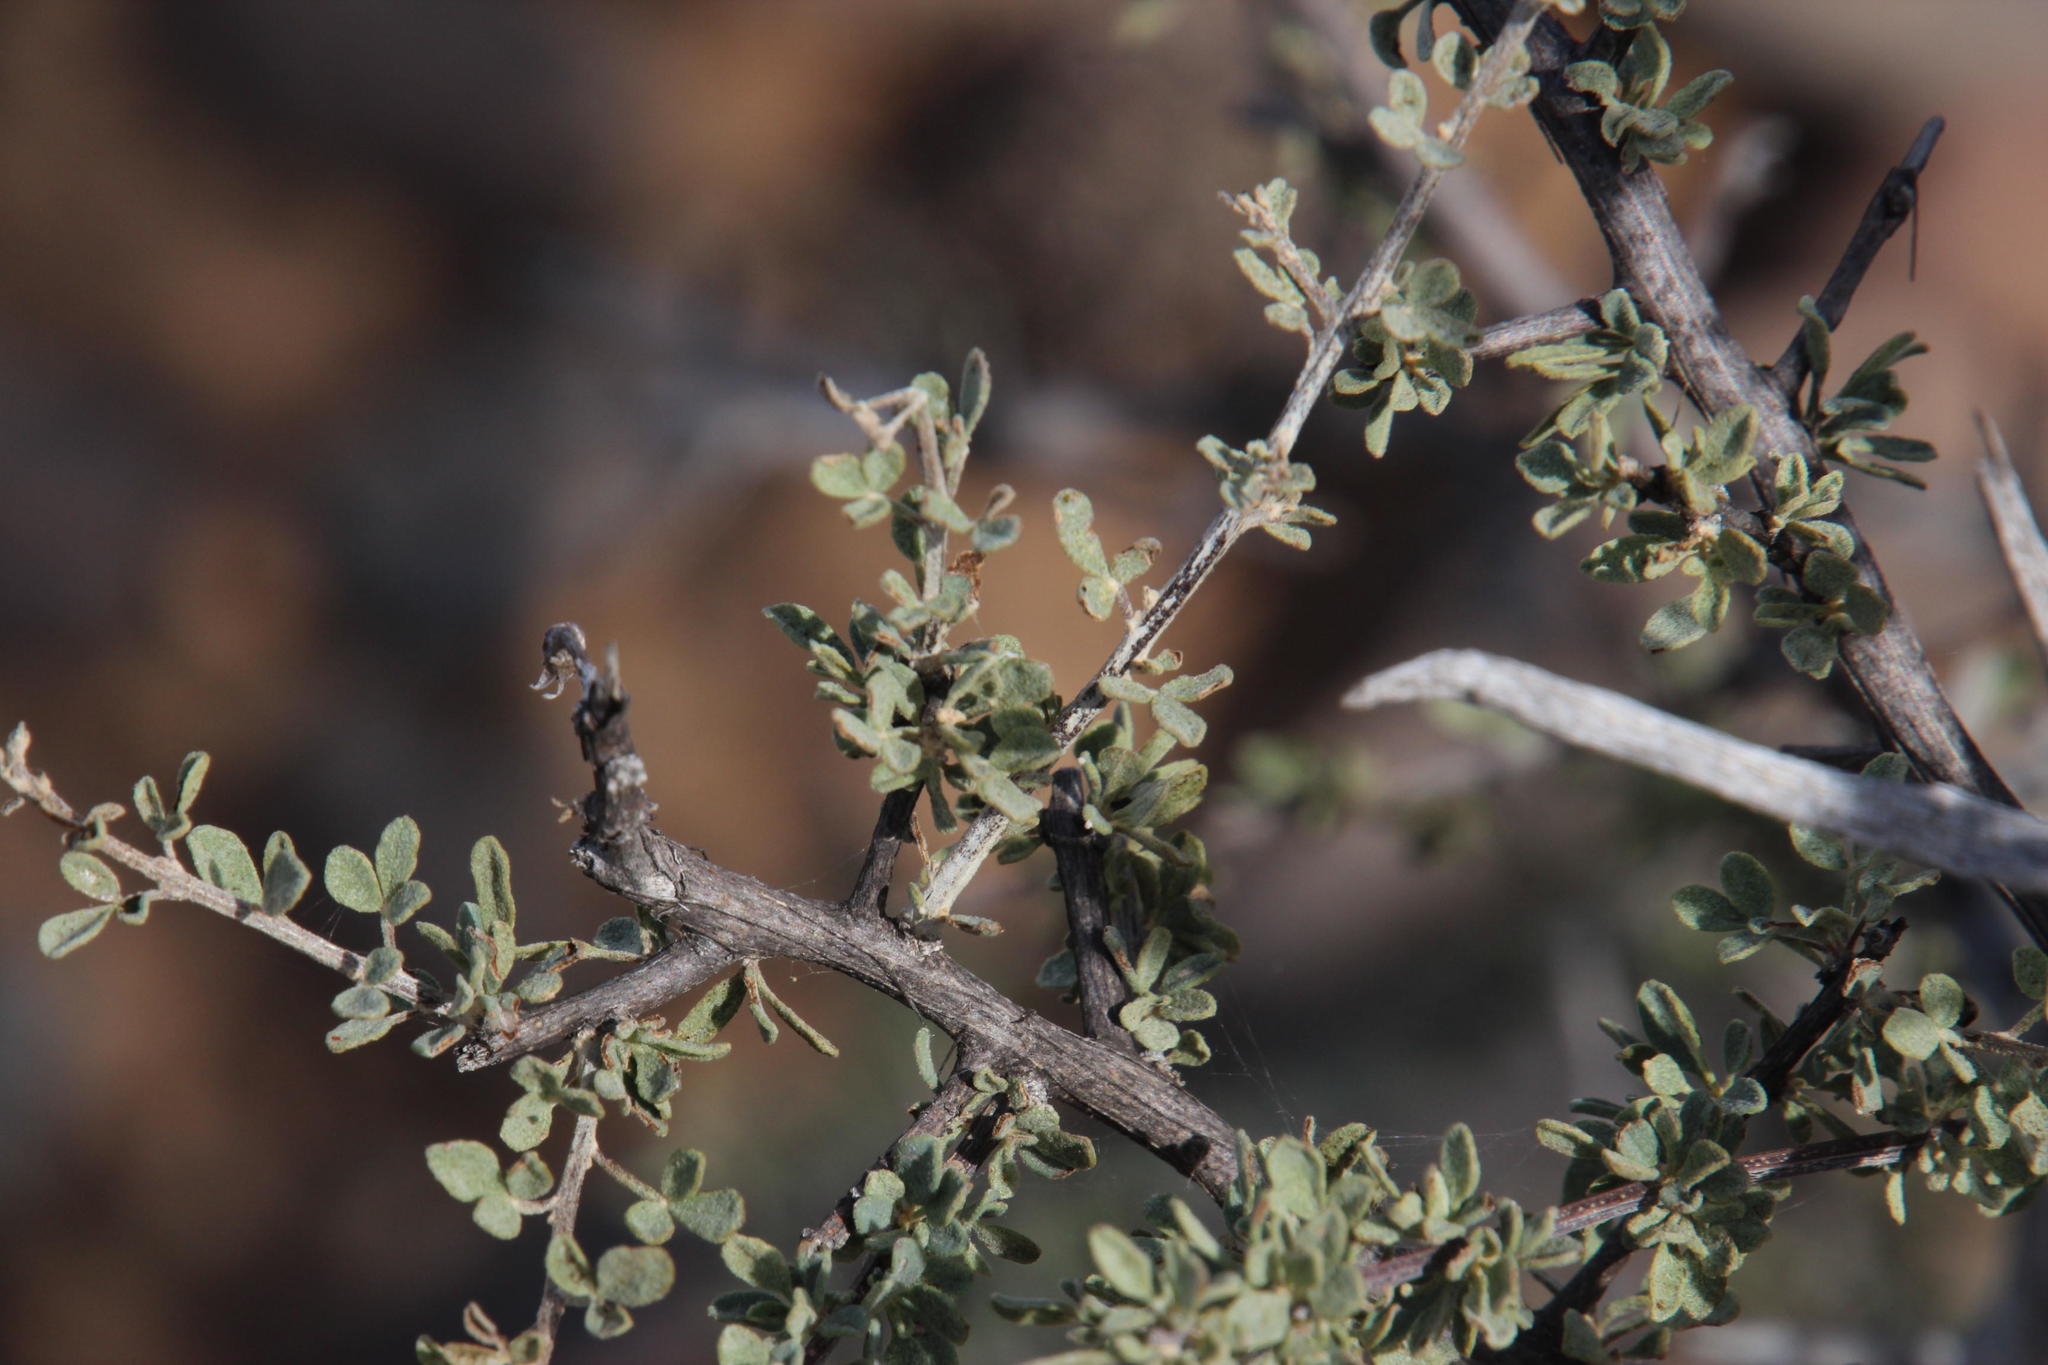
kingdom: Plantae
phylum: Tracheophyta
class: Magnoliopsida
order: Lamiales
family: Bignoniaceae
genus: Rhigozum
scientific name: Rhigozum obovatum
